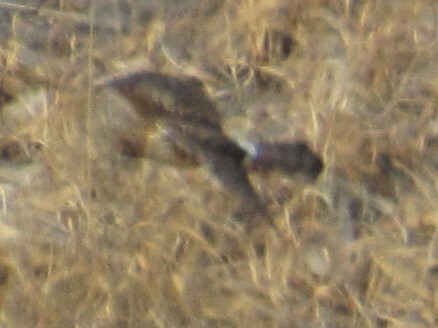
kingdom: Animalia
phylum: Chordata
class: Aves
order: Accipitriformes
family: Accipitridae
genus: Circus
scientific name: Circus cyaneus
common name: Hen harrier
